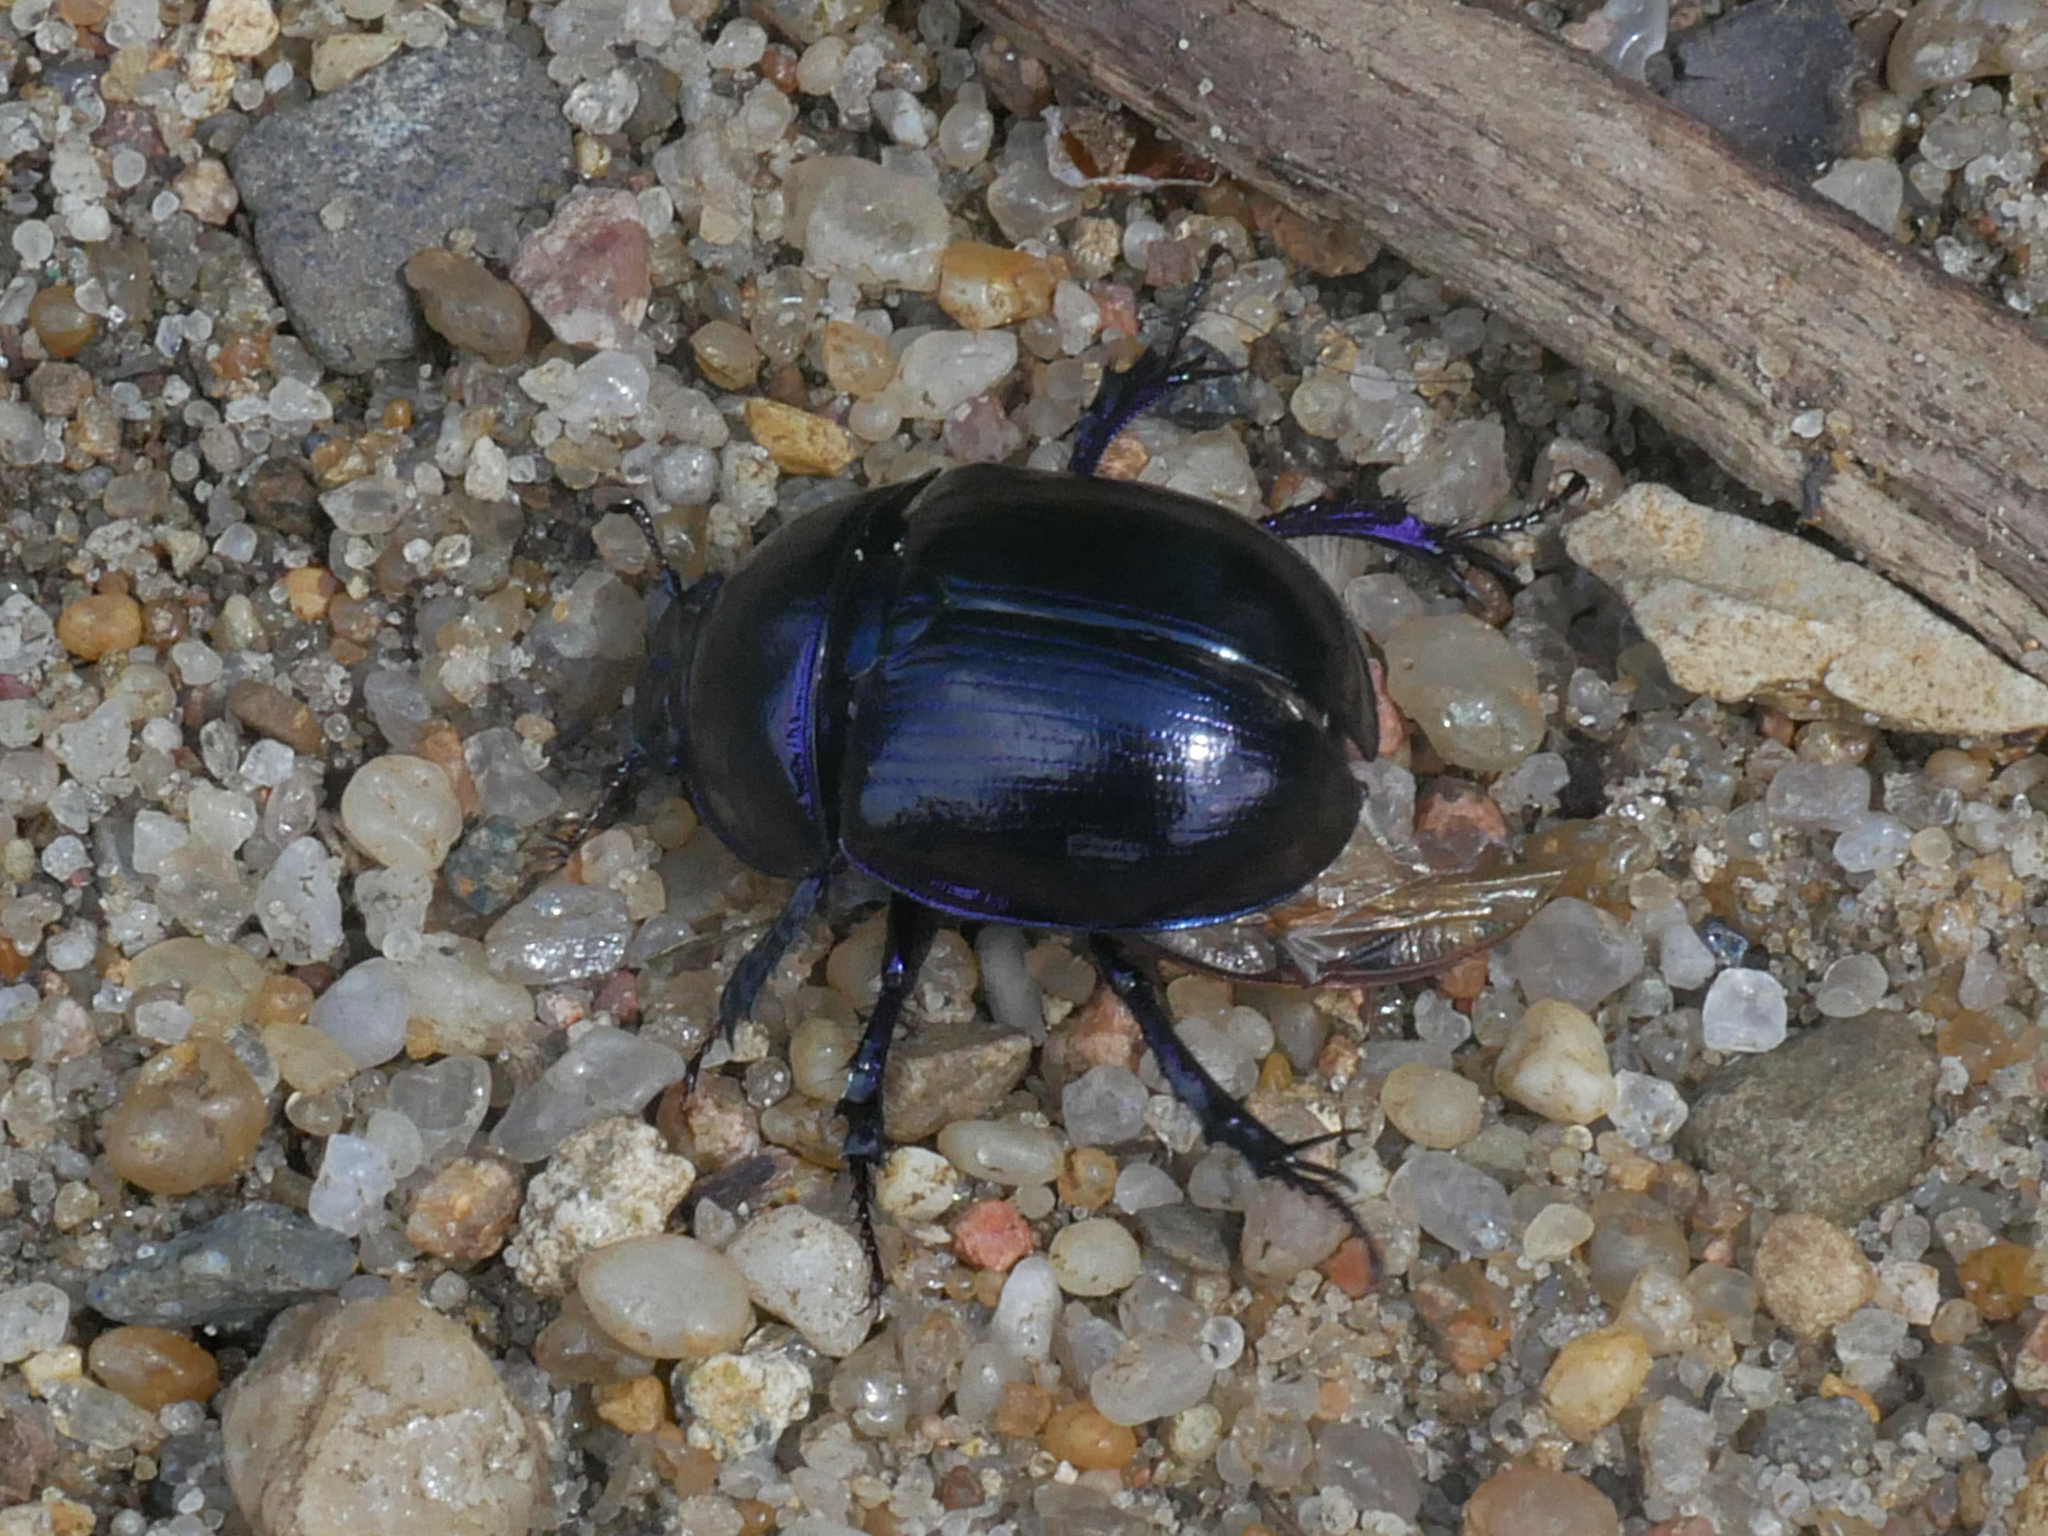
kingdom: Animalia
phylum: Arthropoda
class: Insecta
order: Coleoptera
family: Geotrupidae
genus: Anoplotrupes
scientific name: Anoplotrupes stercorosus
